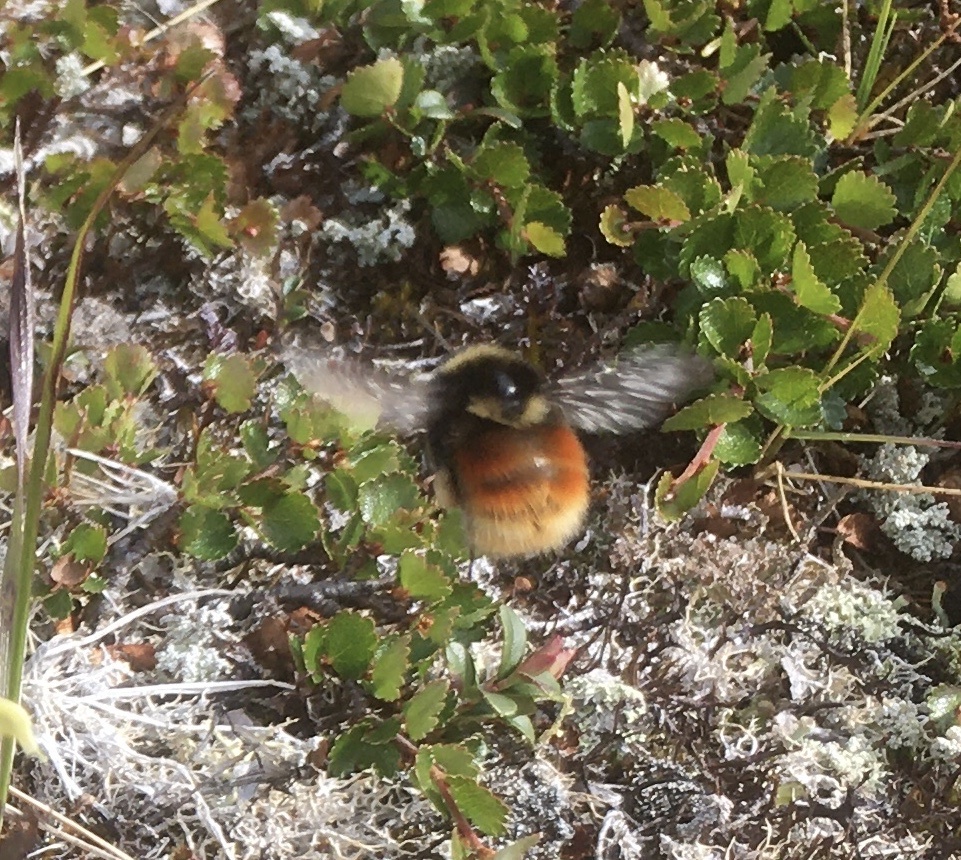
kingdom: Animalia
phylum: Arthropoda
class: Insecta
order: Hymenoptera
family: Apidae
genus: Bombus
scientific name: Bombus lapponicus
